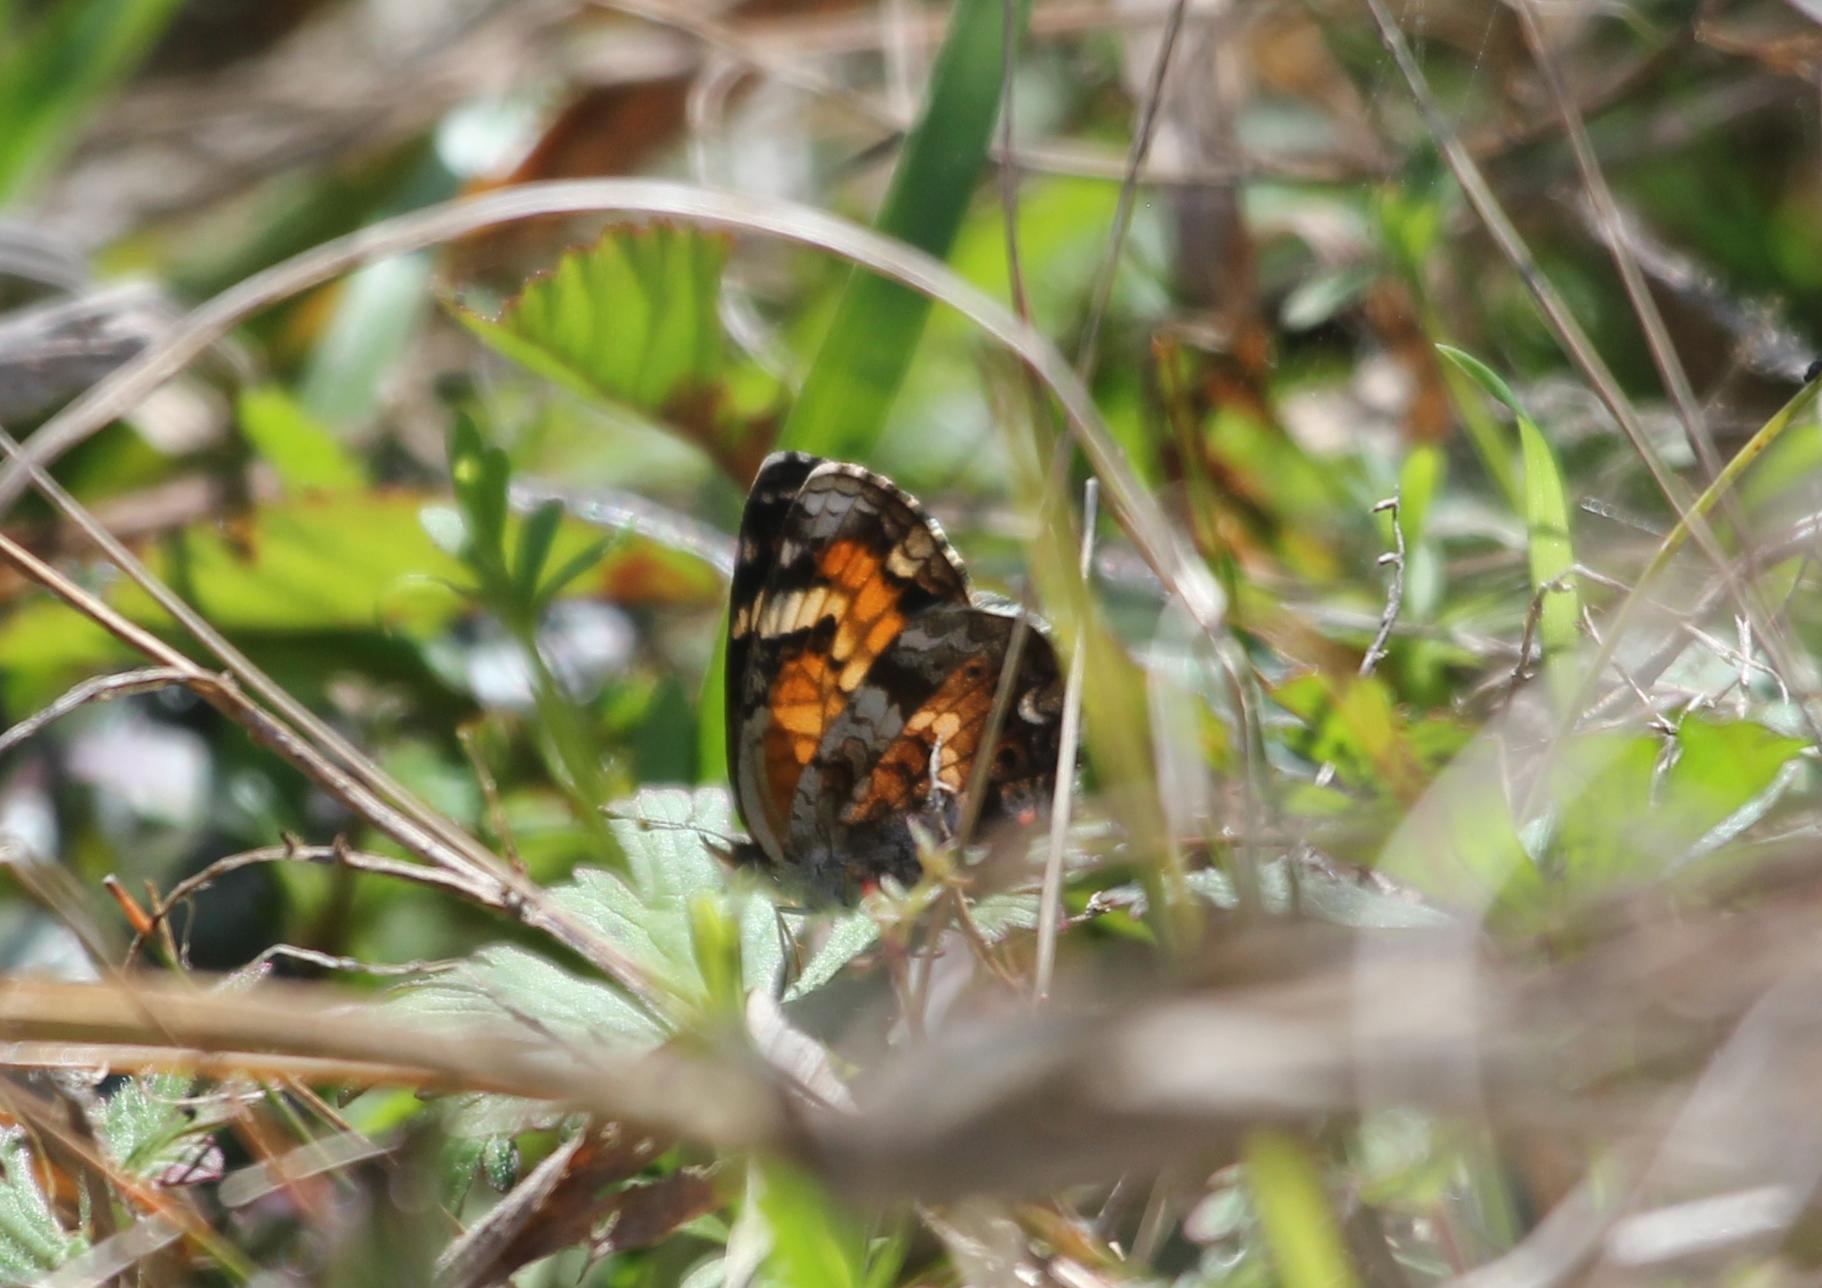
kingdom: Animalia
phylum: Arthropoda
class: Insecta
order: Lepidoptera
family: Nymphalidae
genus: Phyciodes
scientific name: Phyciodes phaon
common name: Phaon crescent
